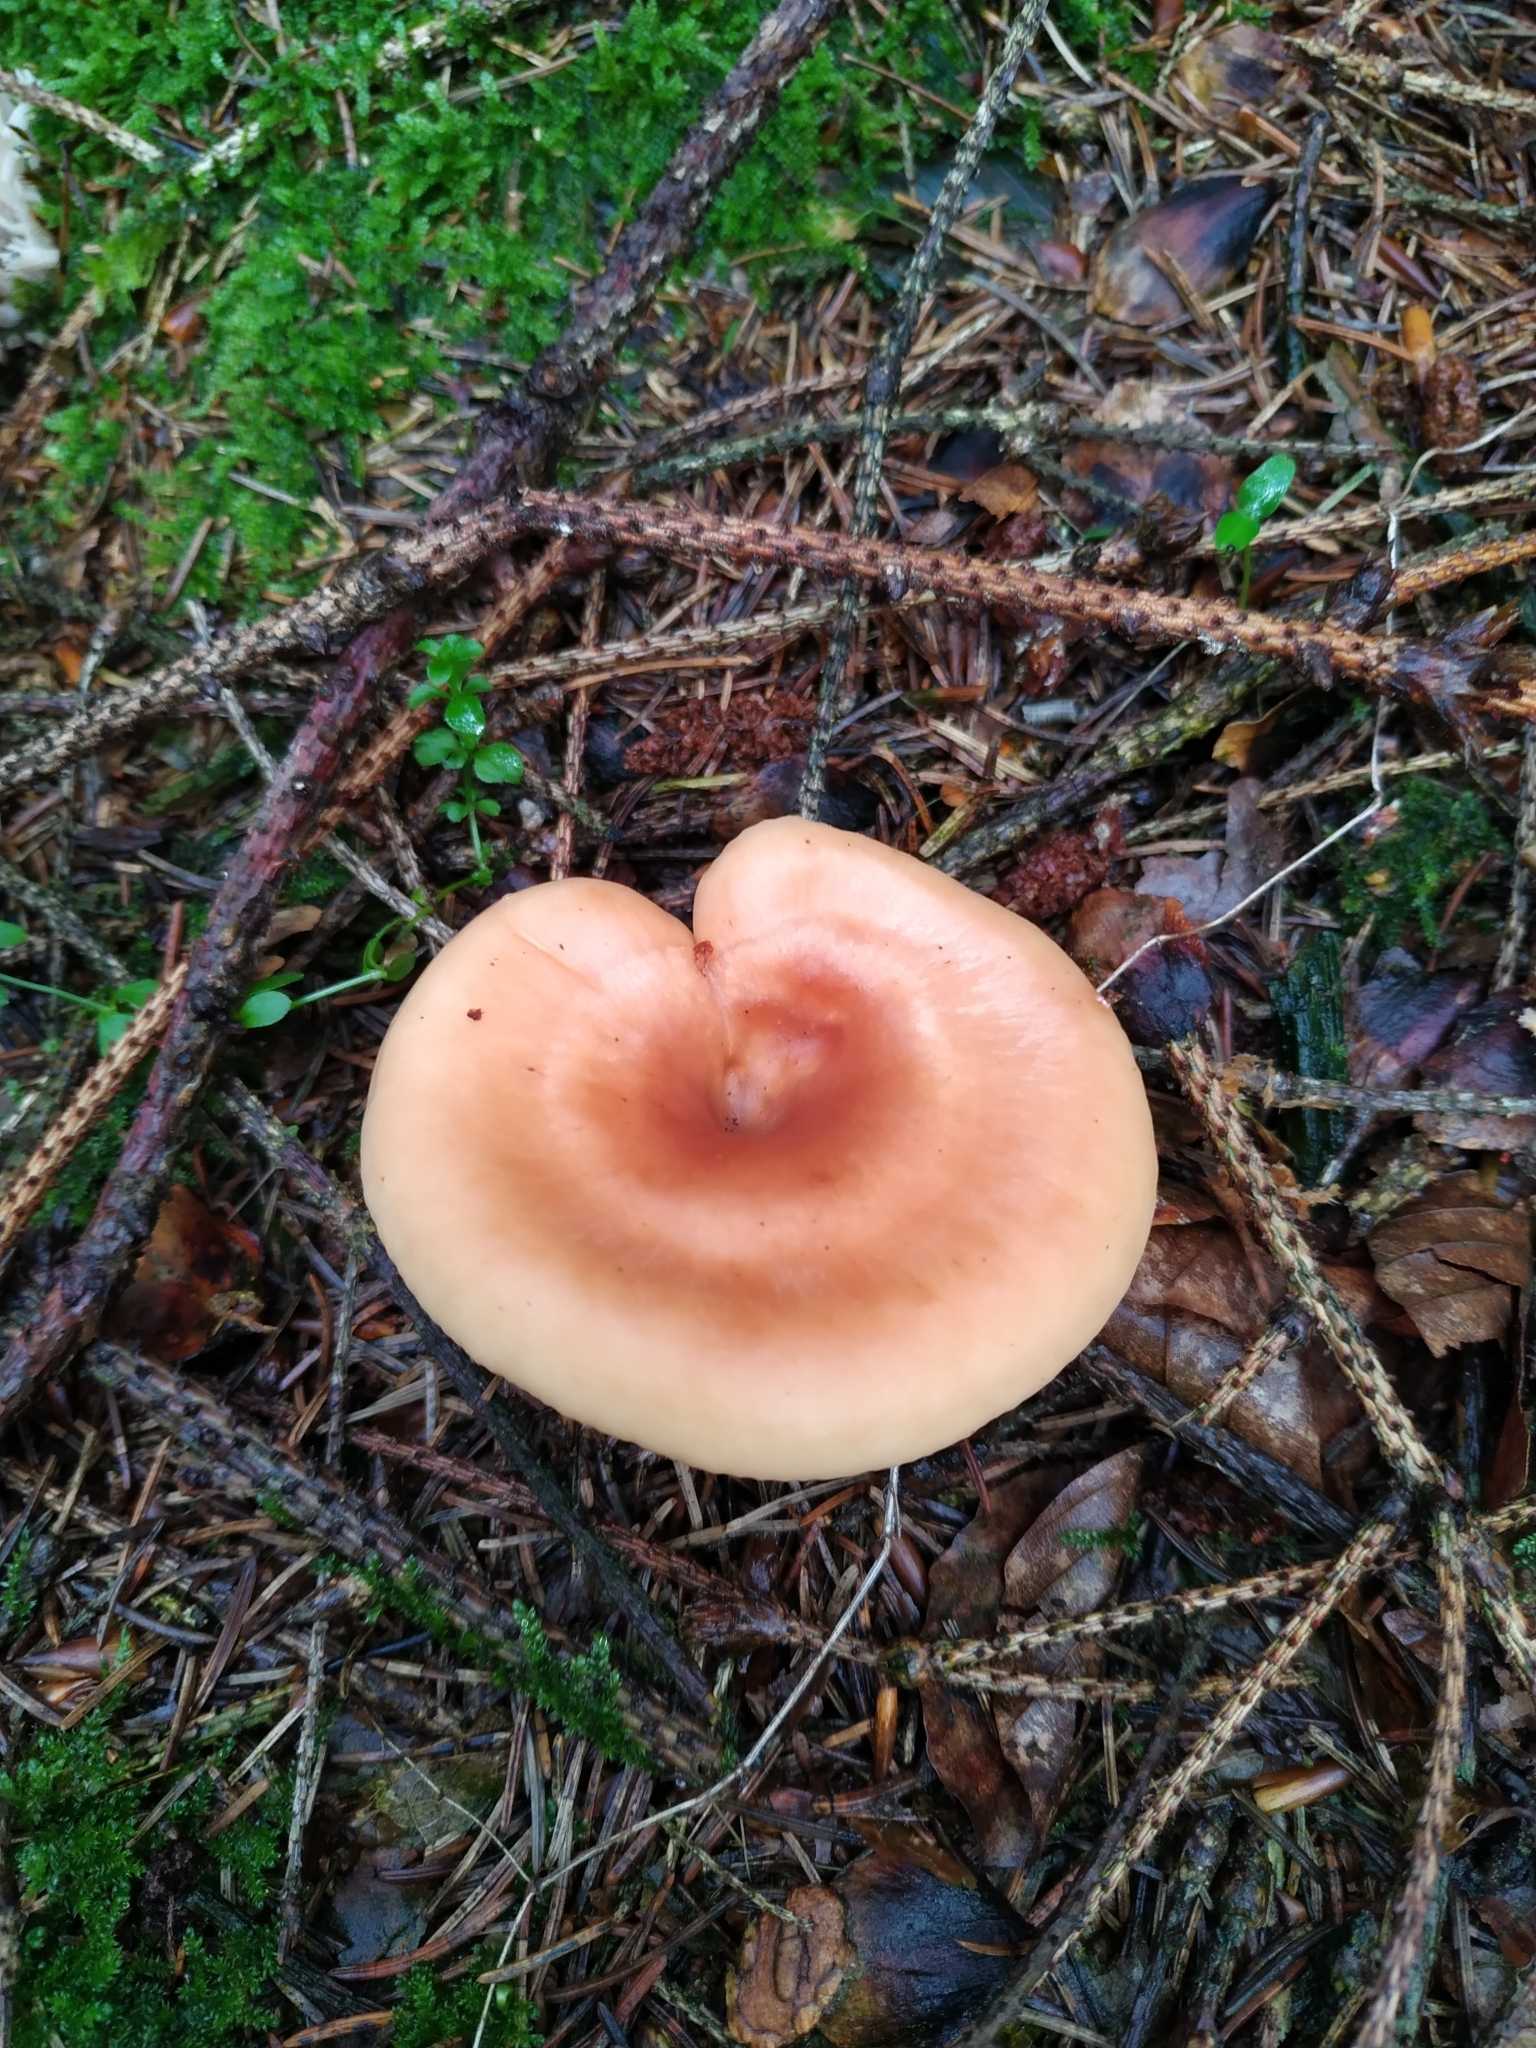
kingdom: Fungi
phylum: Basidiomycota
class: Agaricomycetes
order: Agaricales
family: Tricholomataceae
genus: Paralepista
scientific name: Paralepista flaccida
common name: Tawny funnel cap
